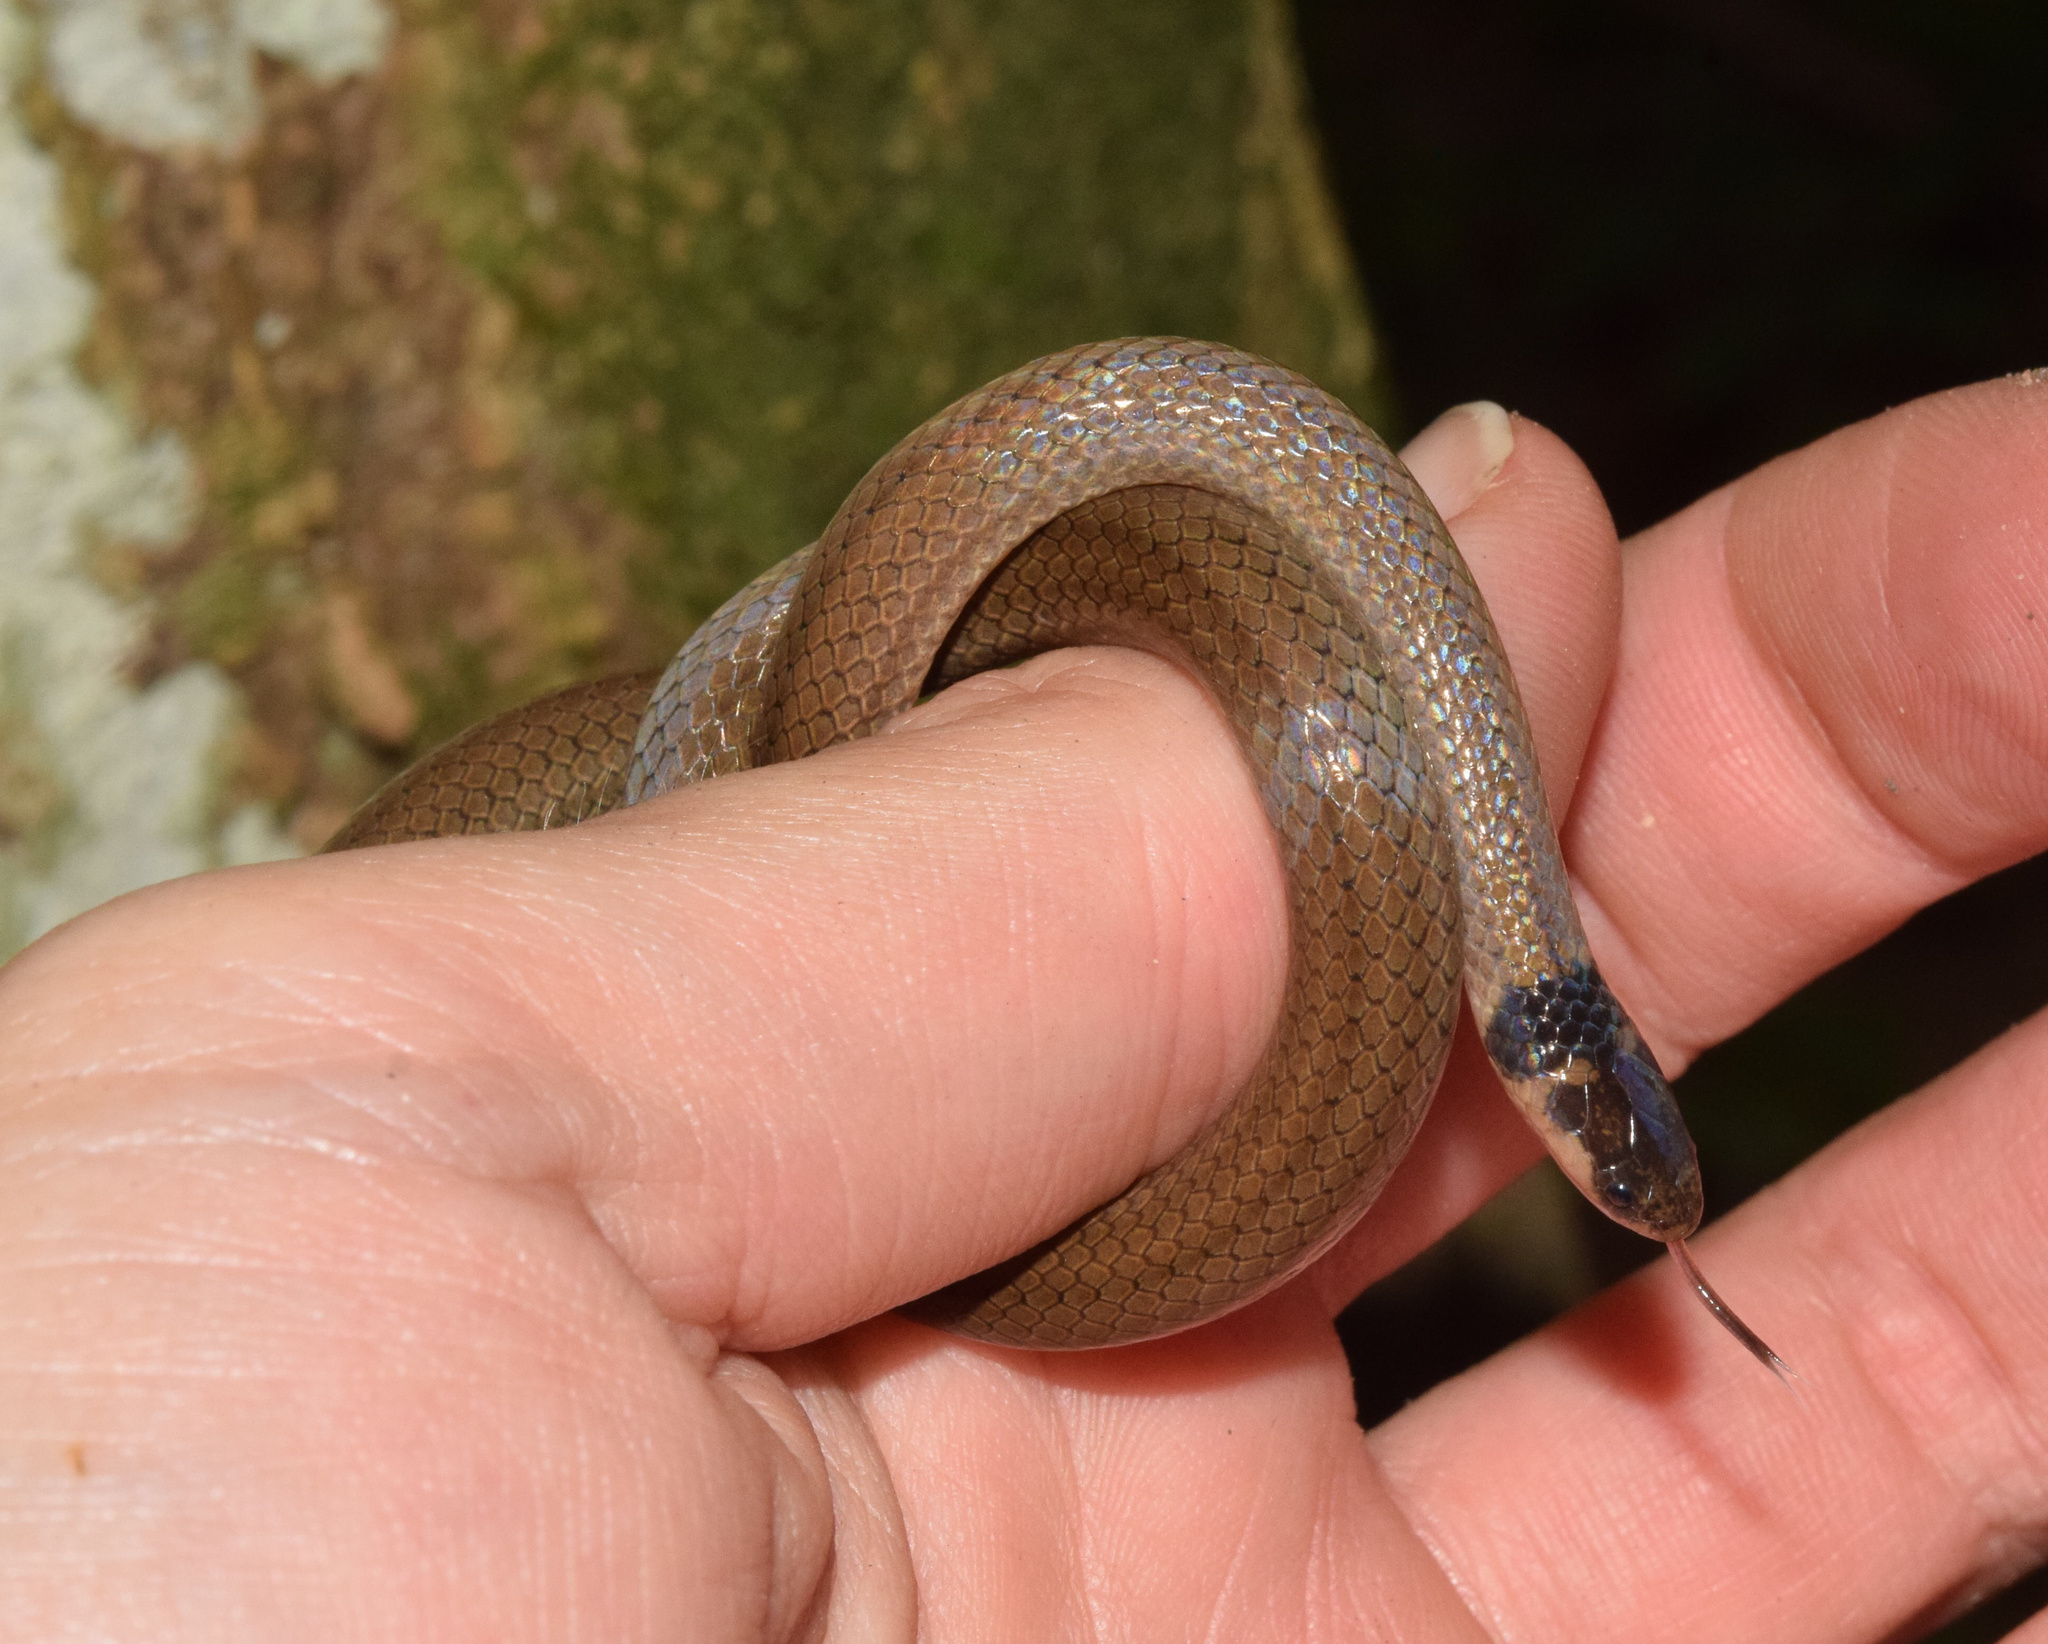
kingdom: Animalia
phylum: Chordata
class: Squamata
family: Atractaspididae
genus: Aparallactus
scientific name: Aparallactus capensis
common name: Cape centipede eater
